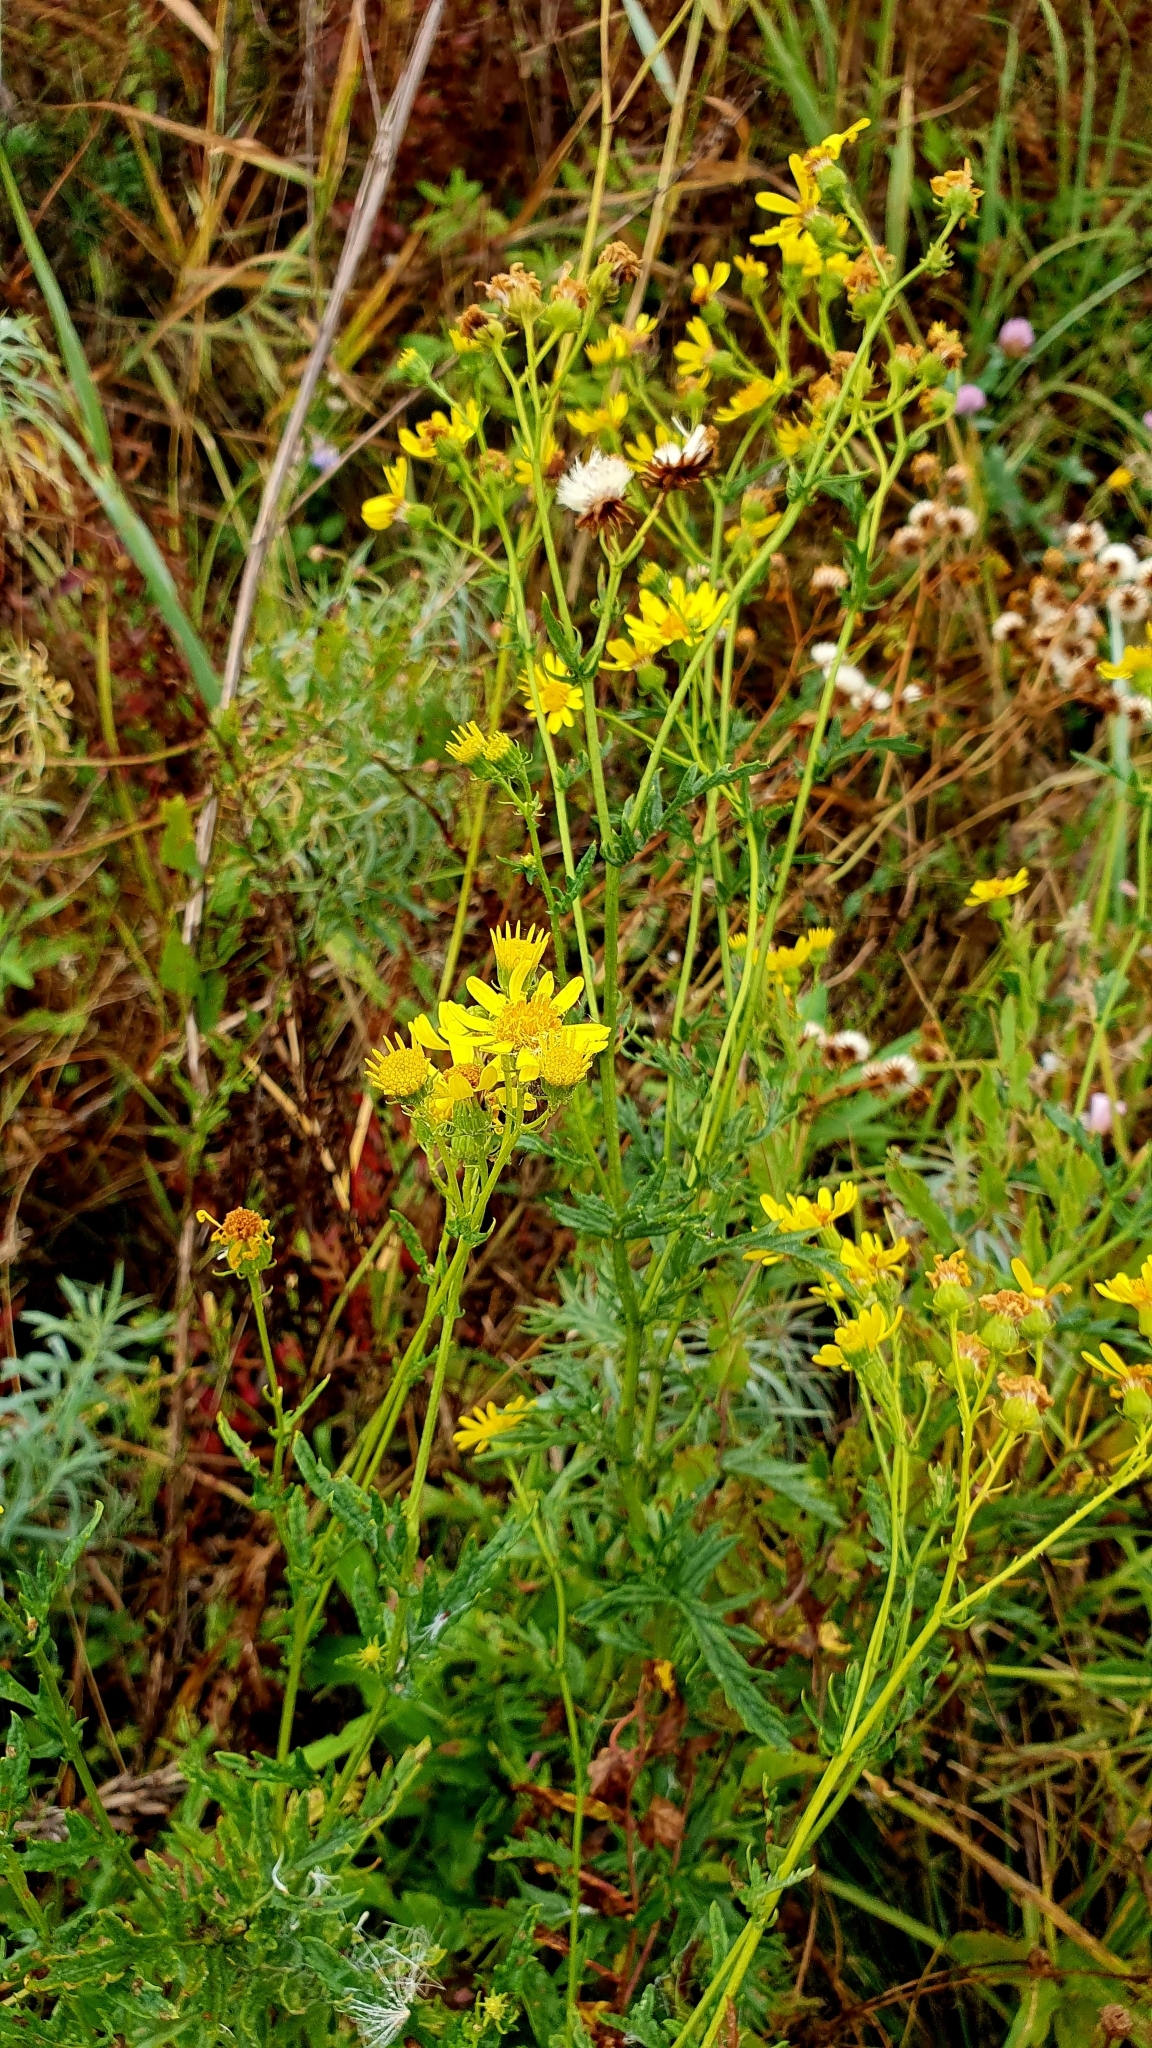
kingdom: Plantae
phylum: Tracheophyta
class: Magnoliopsida
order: Asterales
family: Asteraceae
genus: Jacobaea
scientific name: Jacobaea vulgaris
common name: Stinking willie
